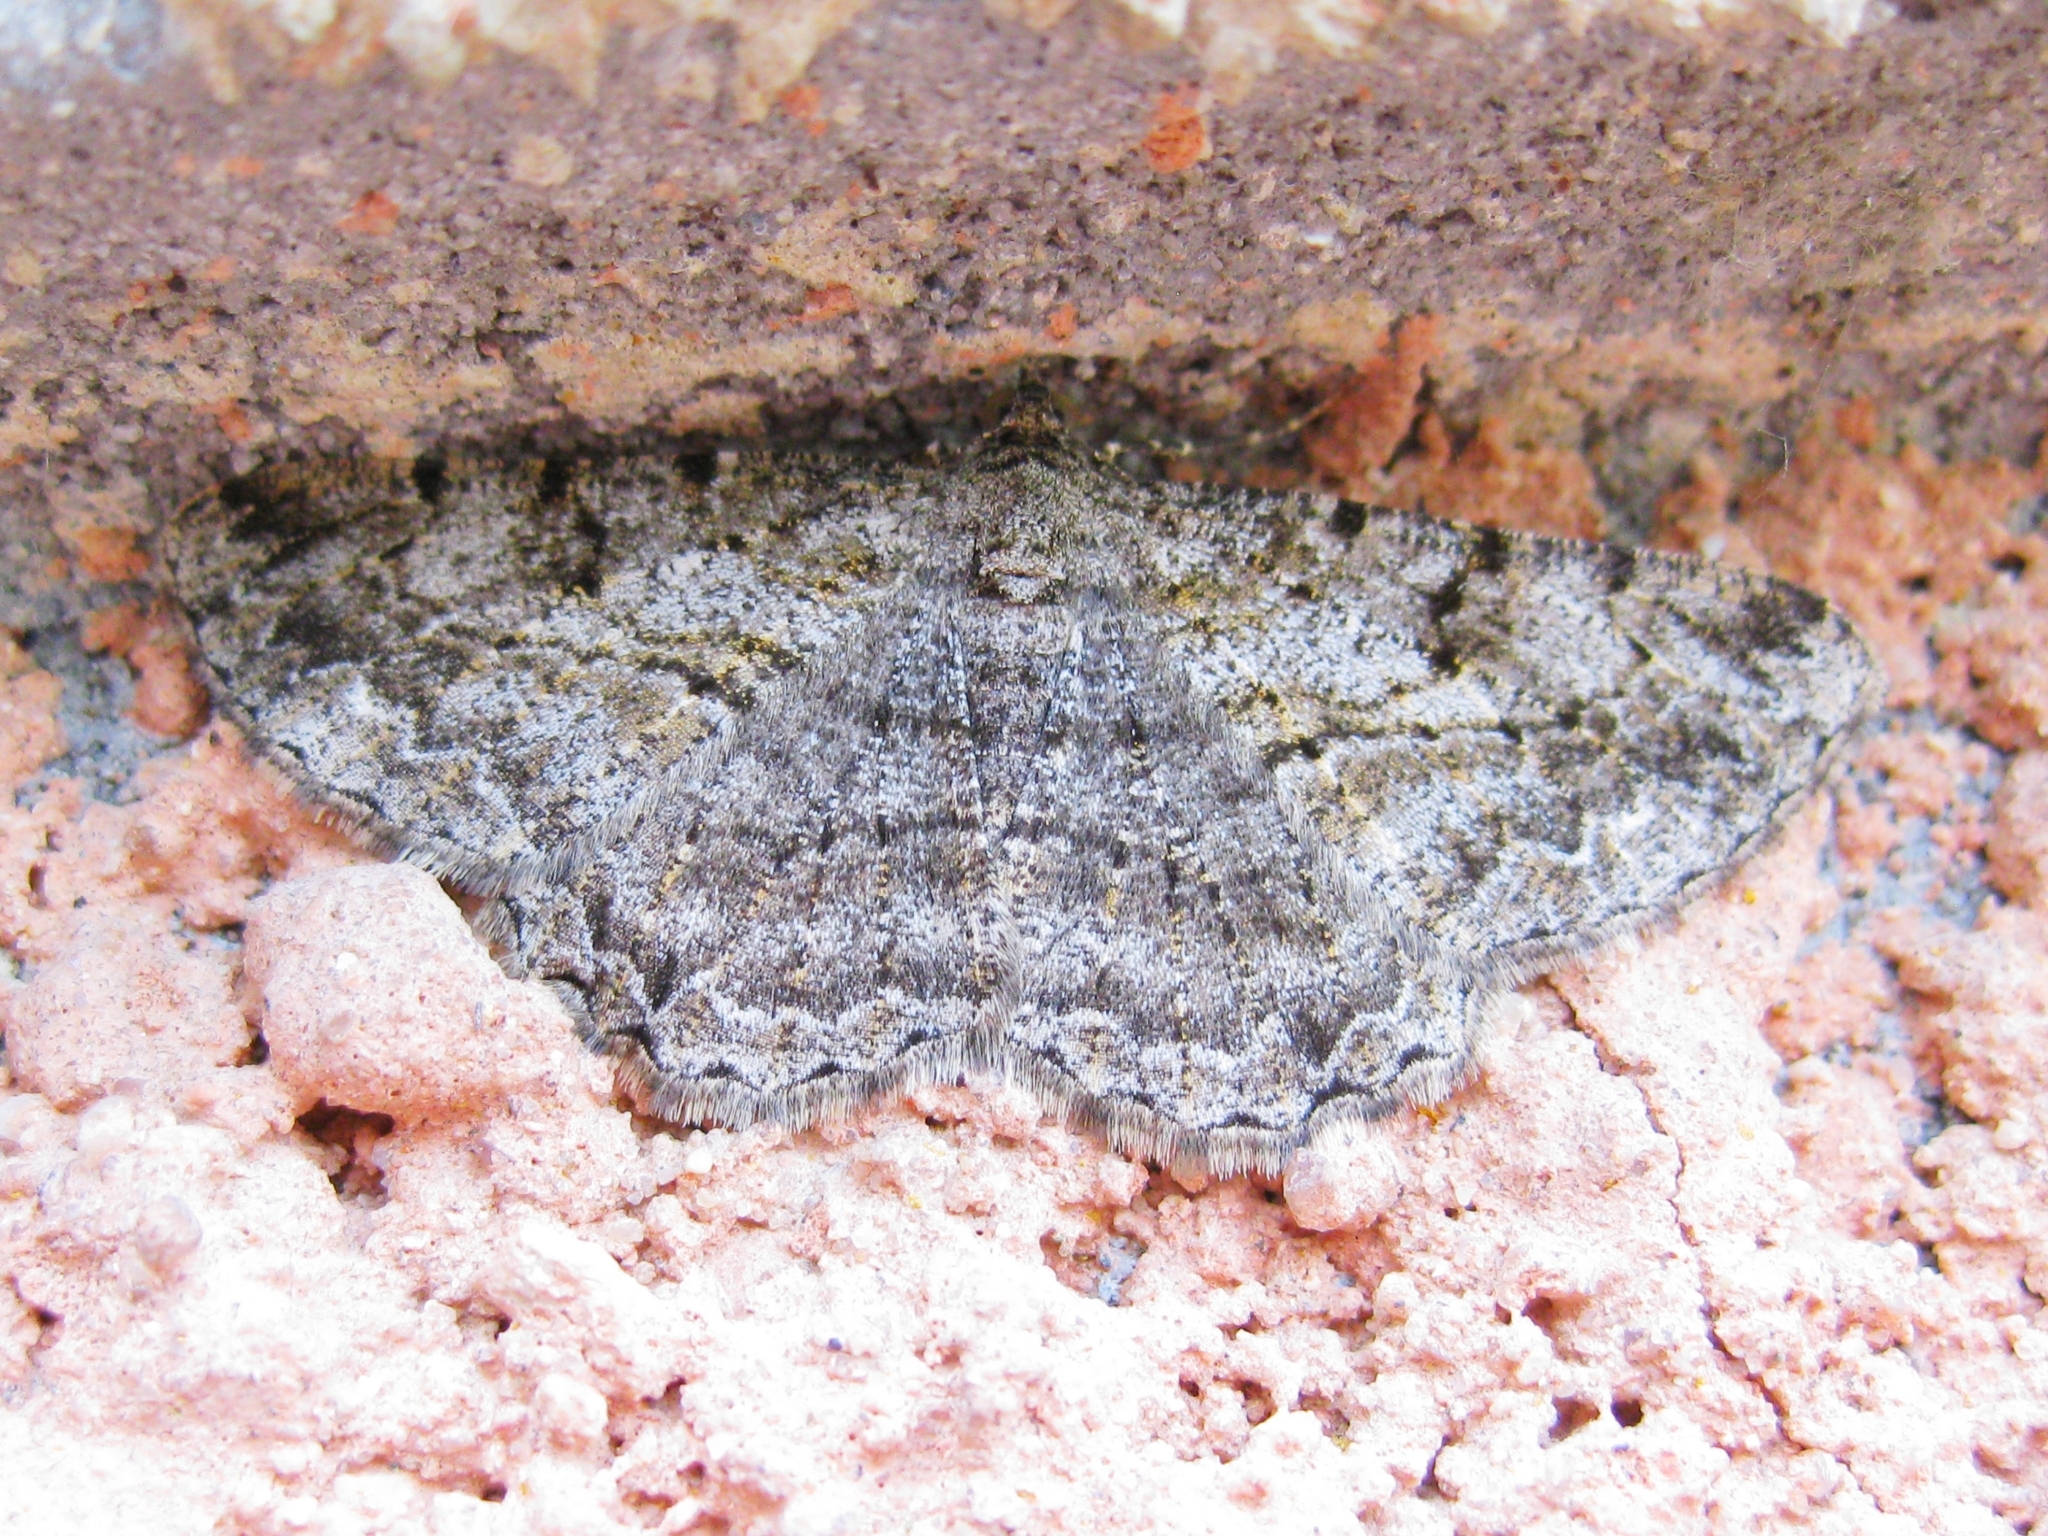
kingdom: Animalia
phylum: Arthropoda
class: Insecta
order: Lepidoptera
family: Geometridae
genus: Peribatodes
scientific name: Peribatodes rhomboidaria
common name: Willow beauty
